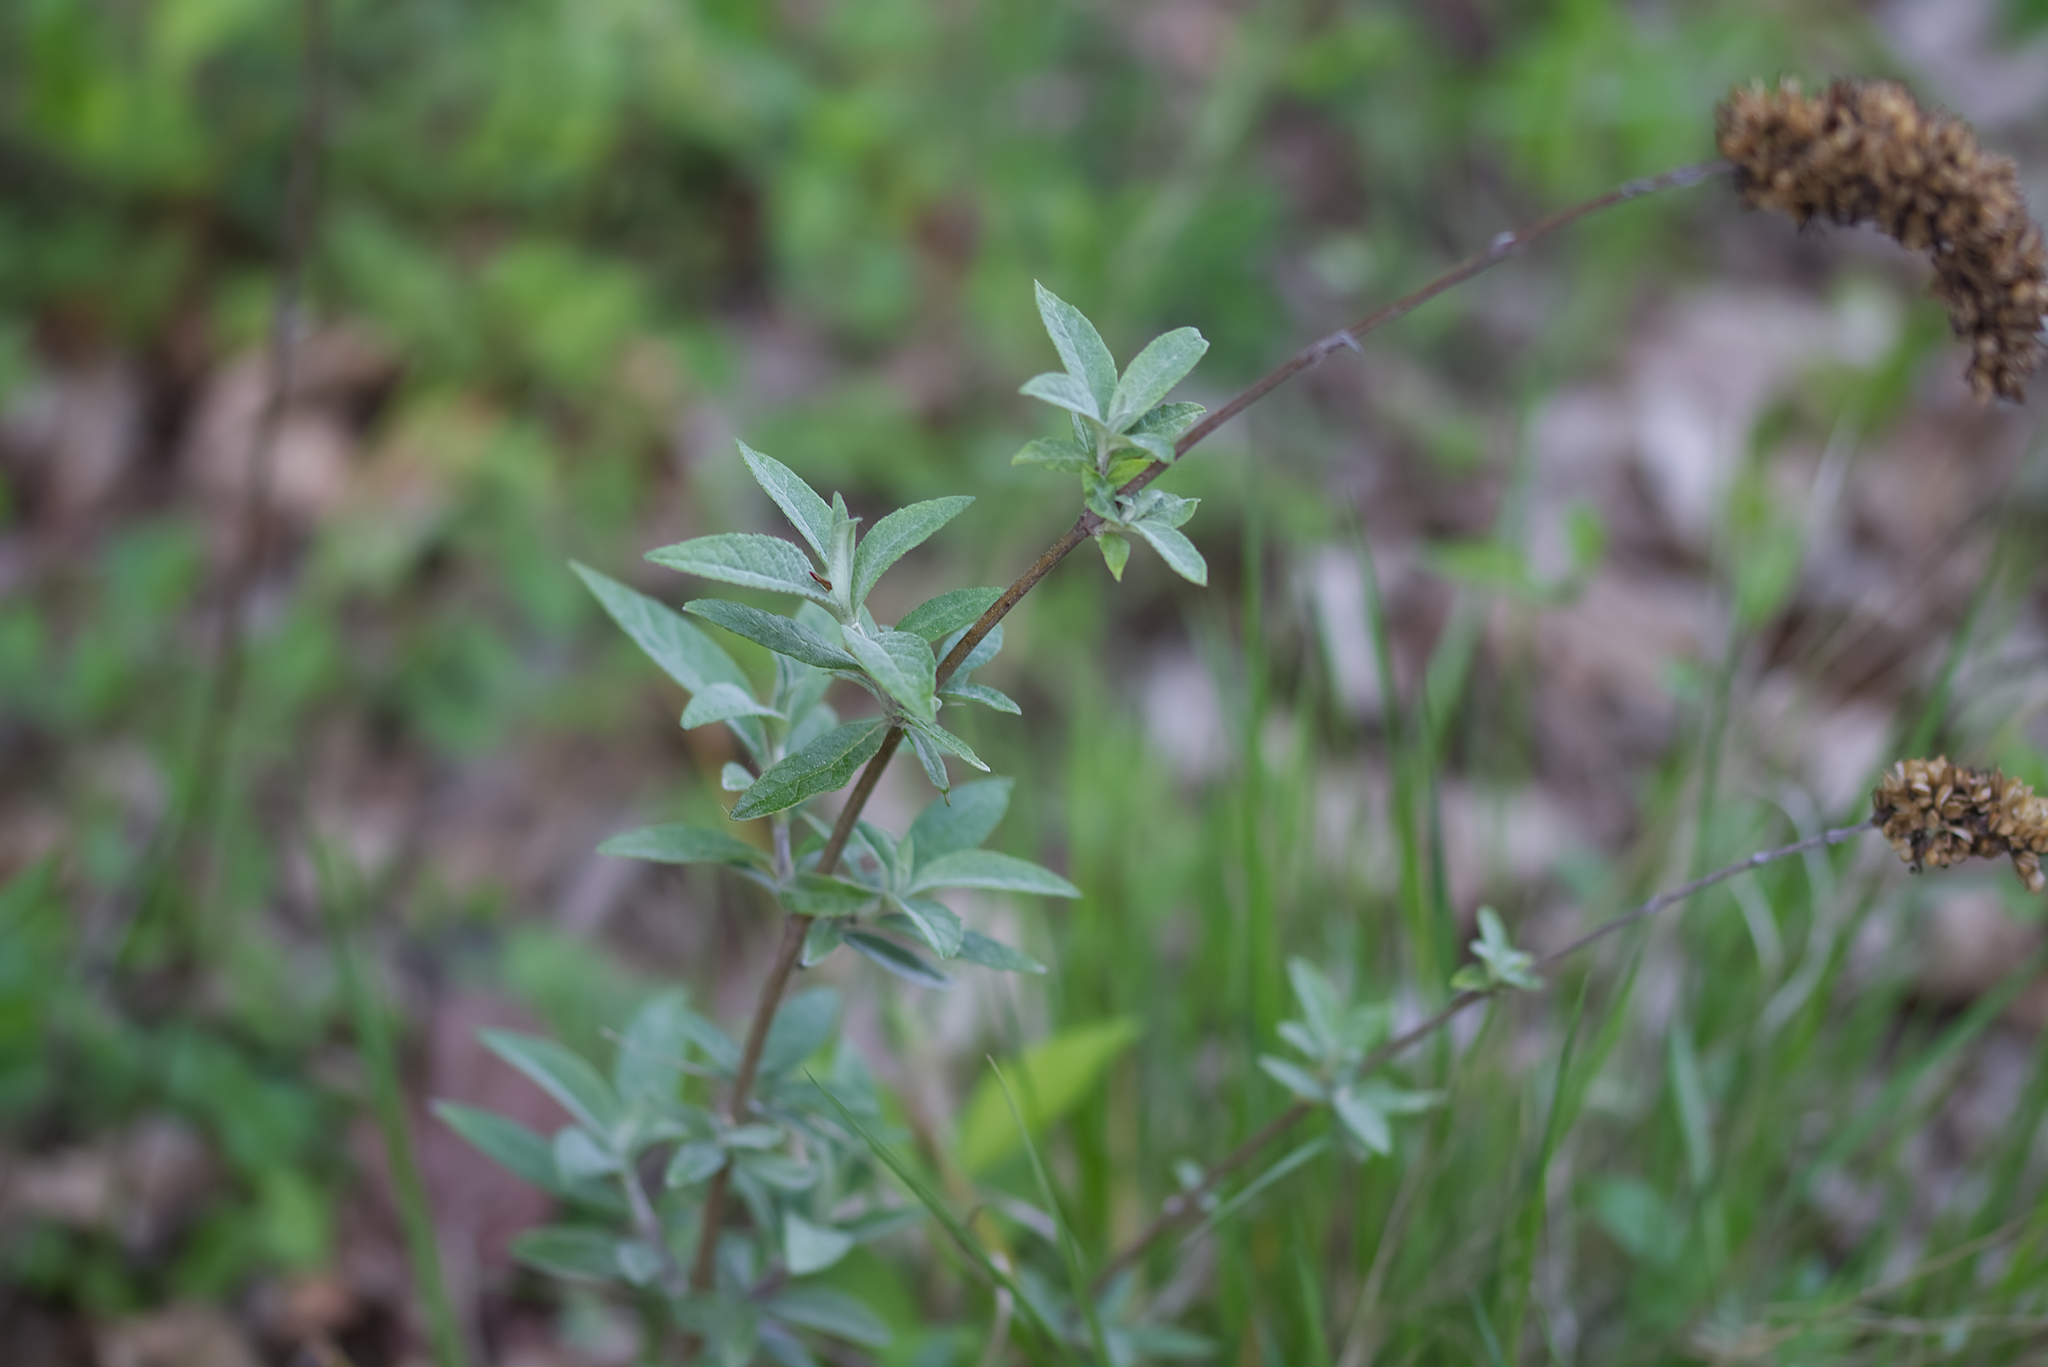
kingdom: Plantae
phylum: Tracheophyta
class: Magnoliopsida
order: Lamiales
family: Scrophulariaceae
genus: Buddleja
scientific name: Buddleja davidii
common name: Butterfly-bush
